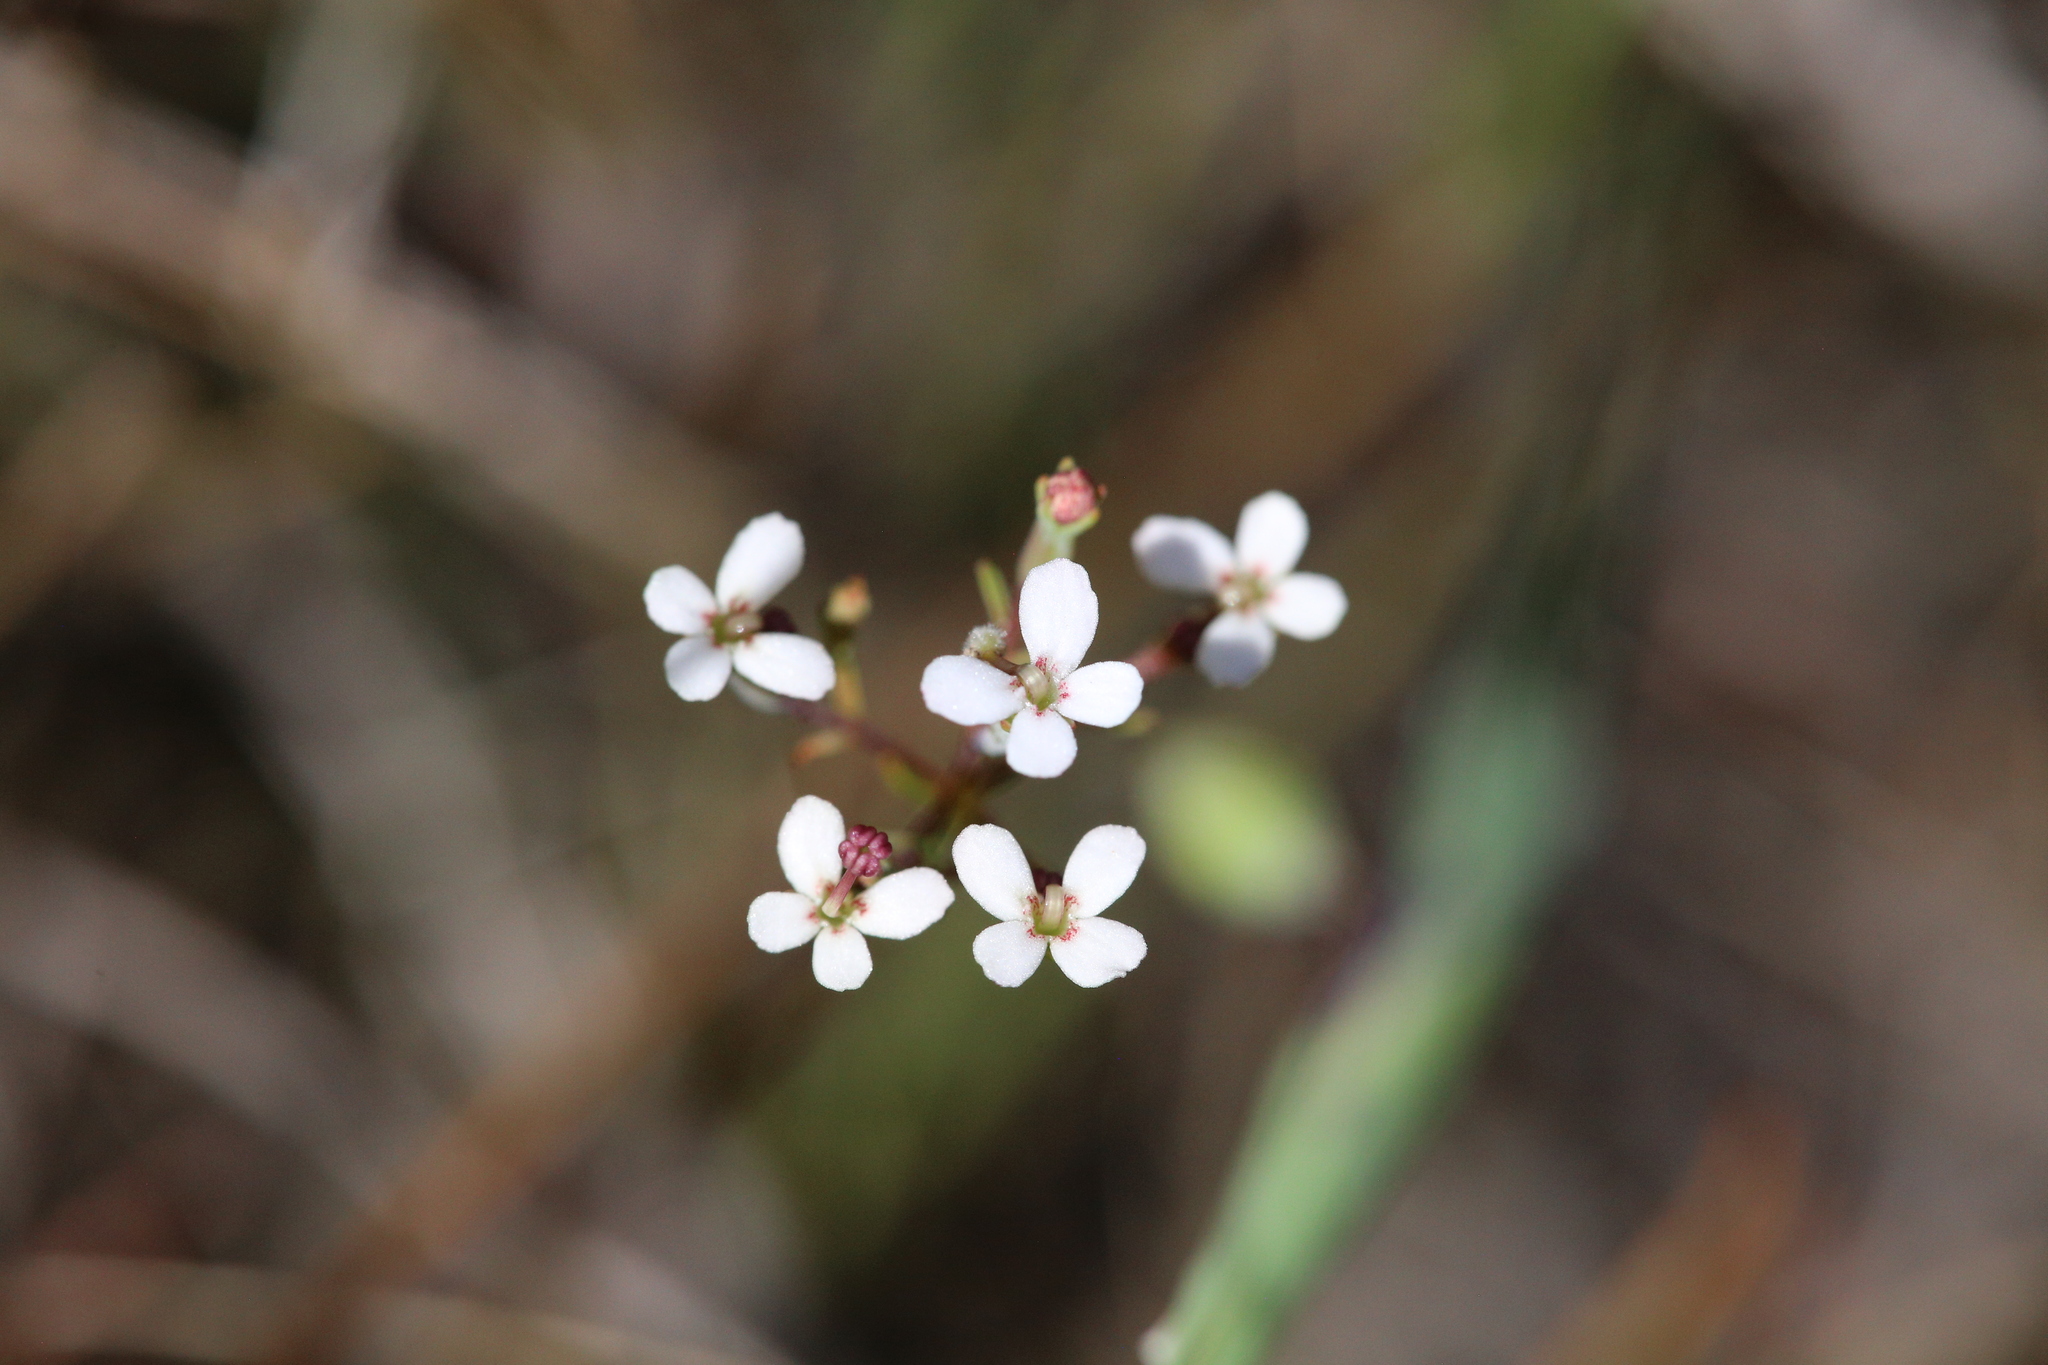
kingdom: Plantae
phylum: Tracheophyta
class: Magnoliopsida
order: Asterales
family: Stylidiaceae
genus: Stylidium
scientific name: Stylidium pulchellum
